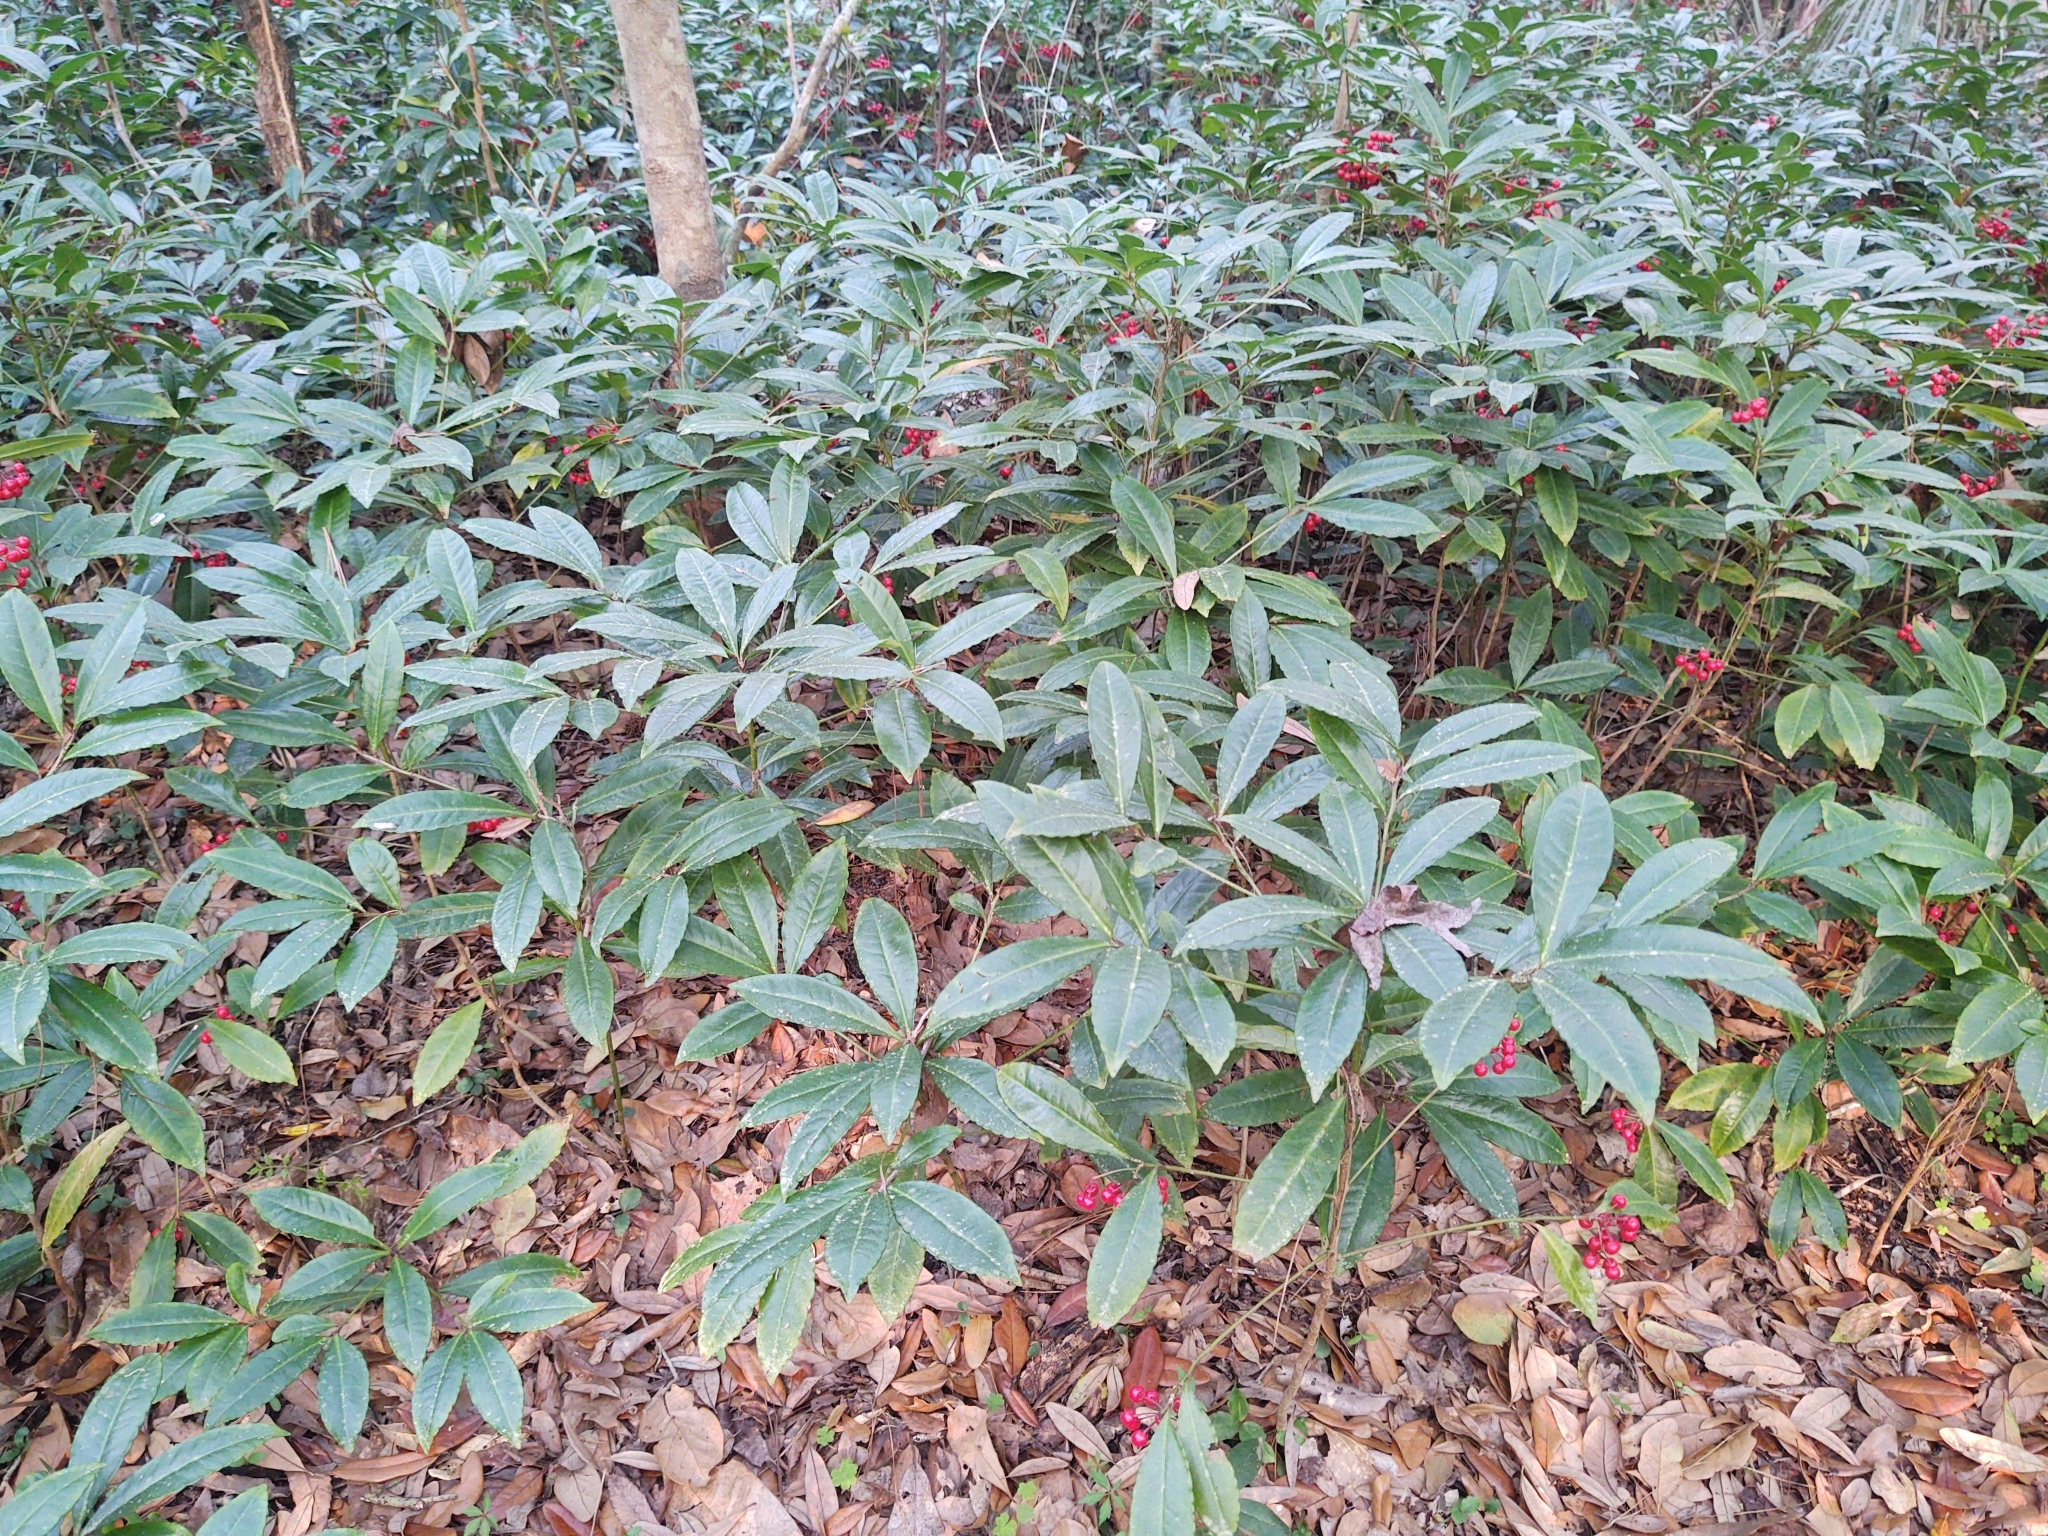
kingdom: Plantae
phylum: Tracheophyta
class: Magnoliopsida
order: Ericales
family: Primulaceae
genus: Ardisia
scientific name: Ardisia crenata
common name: Hen's eyes
